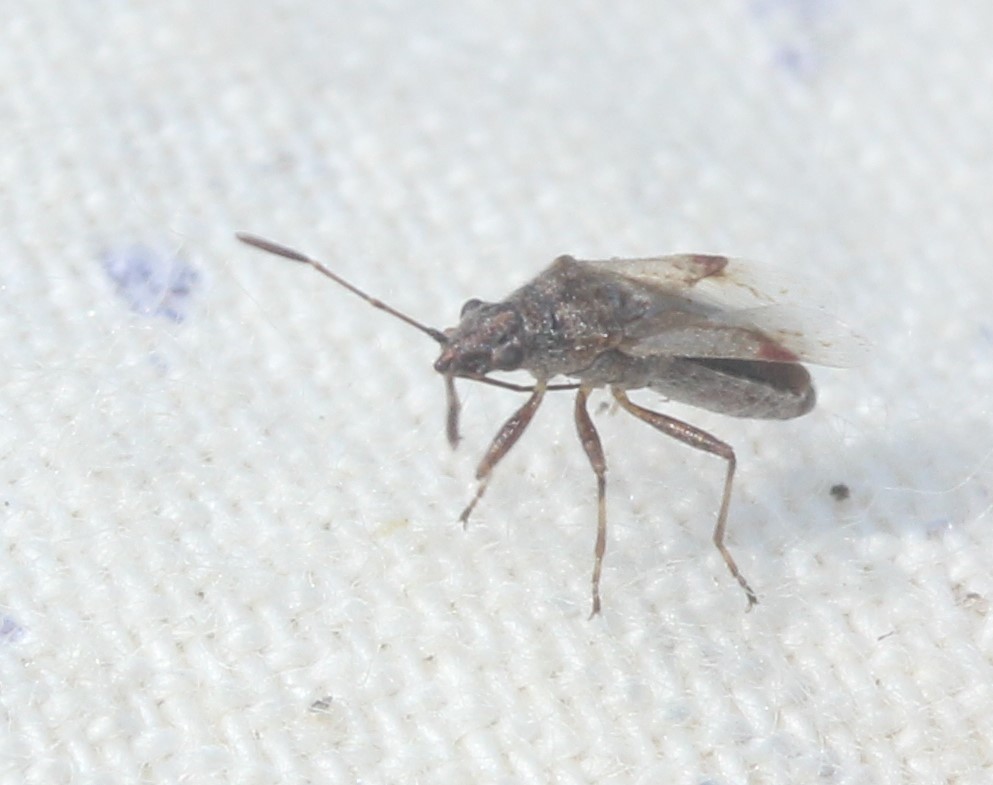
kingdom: Animalia
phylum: Arthropoda
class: Insecta
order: Hemiptera
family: Lygaeidae
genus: Neortholomus
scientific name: Neortholomus scolopax
